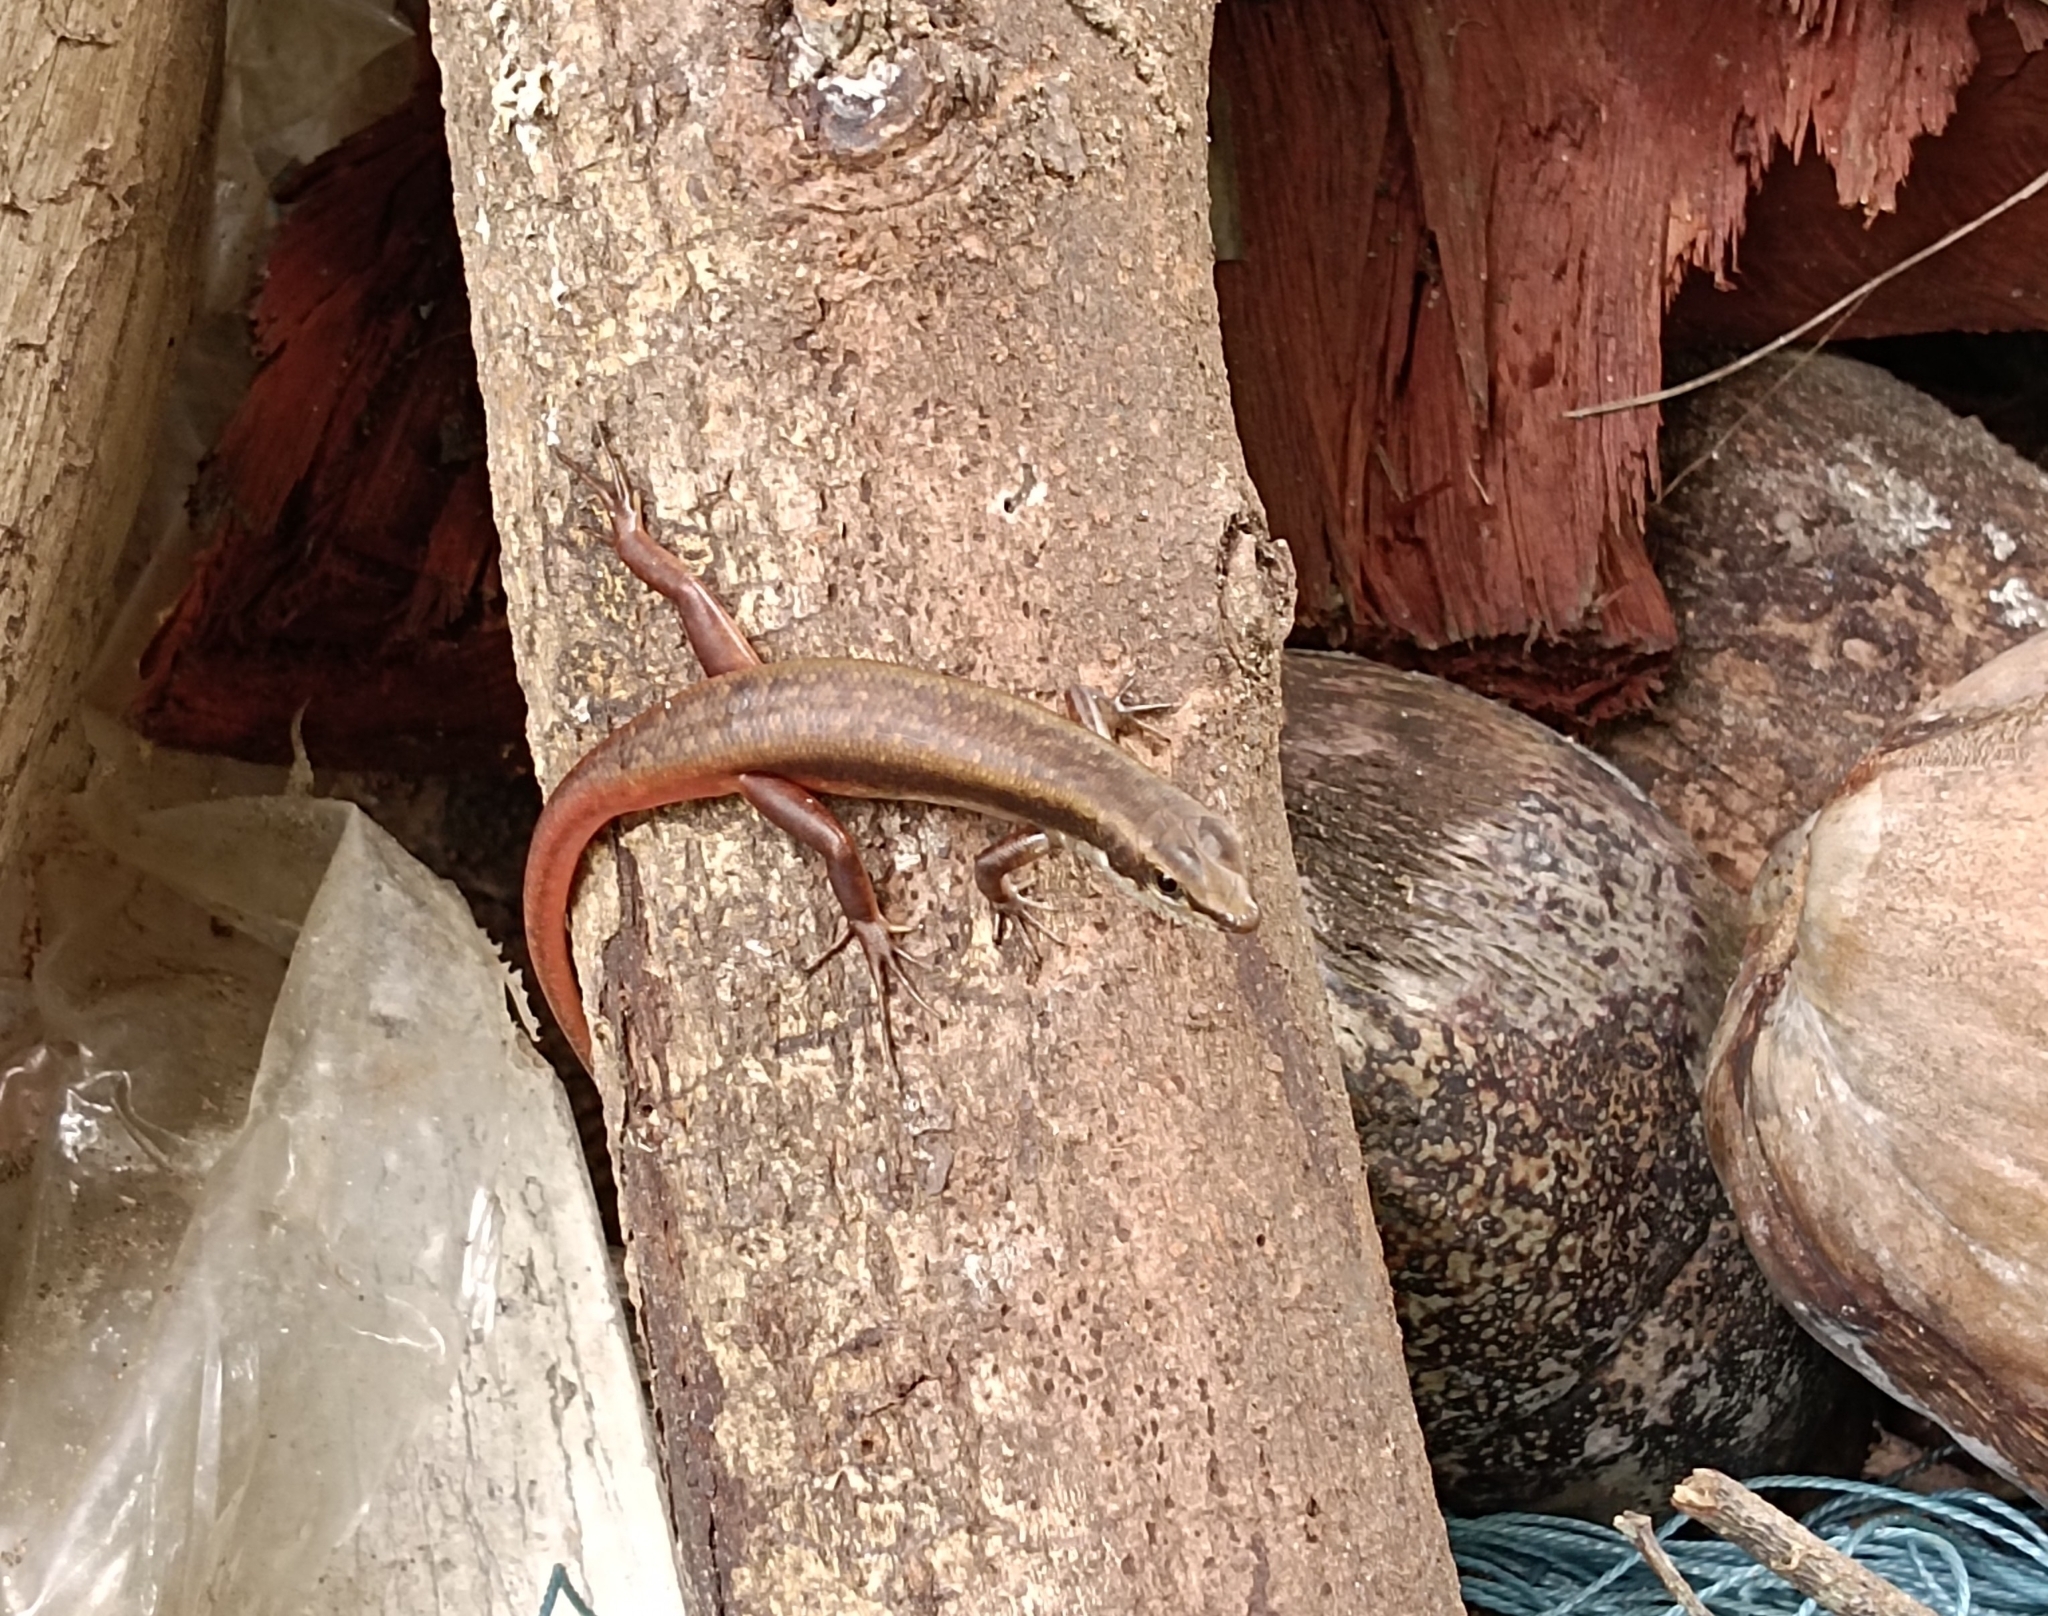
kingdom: Animalia
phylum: Chordata
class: Squamata
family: Scincidae
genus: Sphenomorphus
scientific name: Sphenomorphus dussumieri
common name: Dussumier's forest skink
